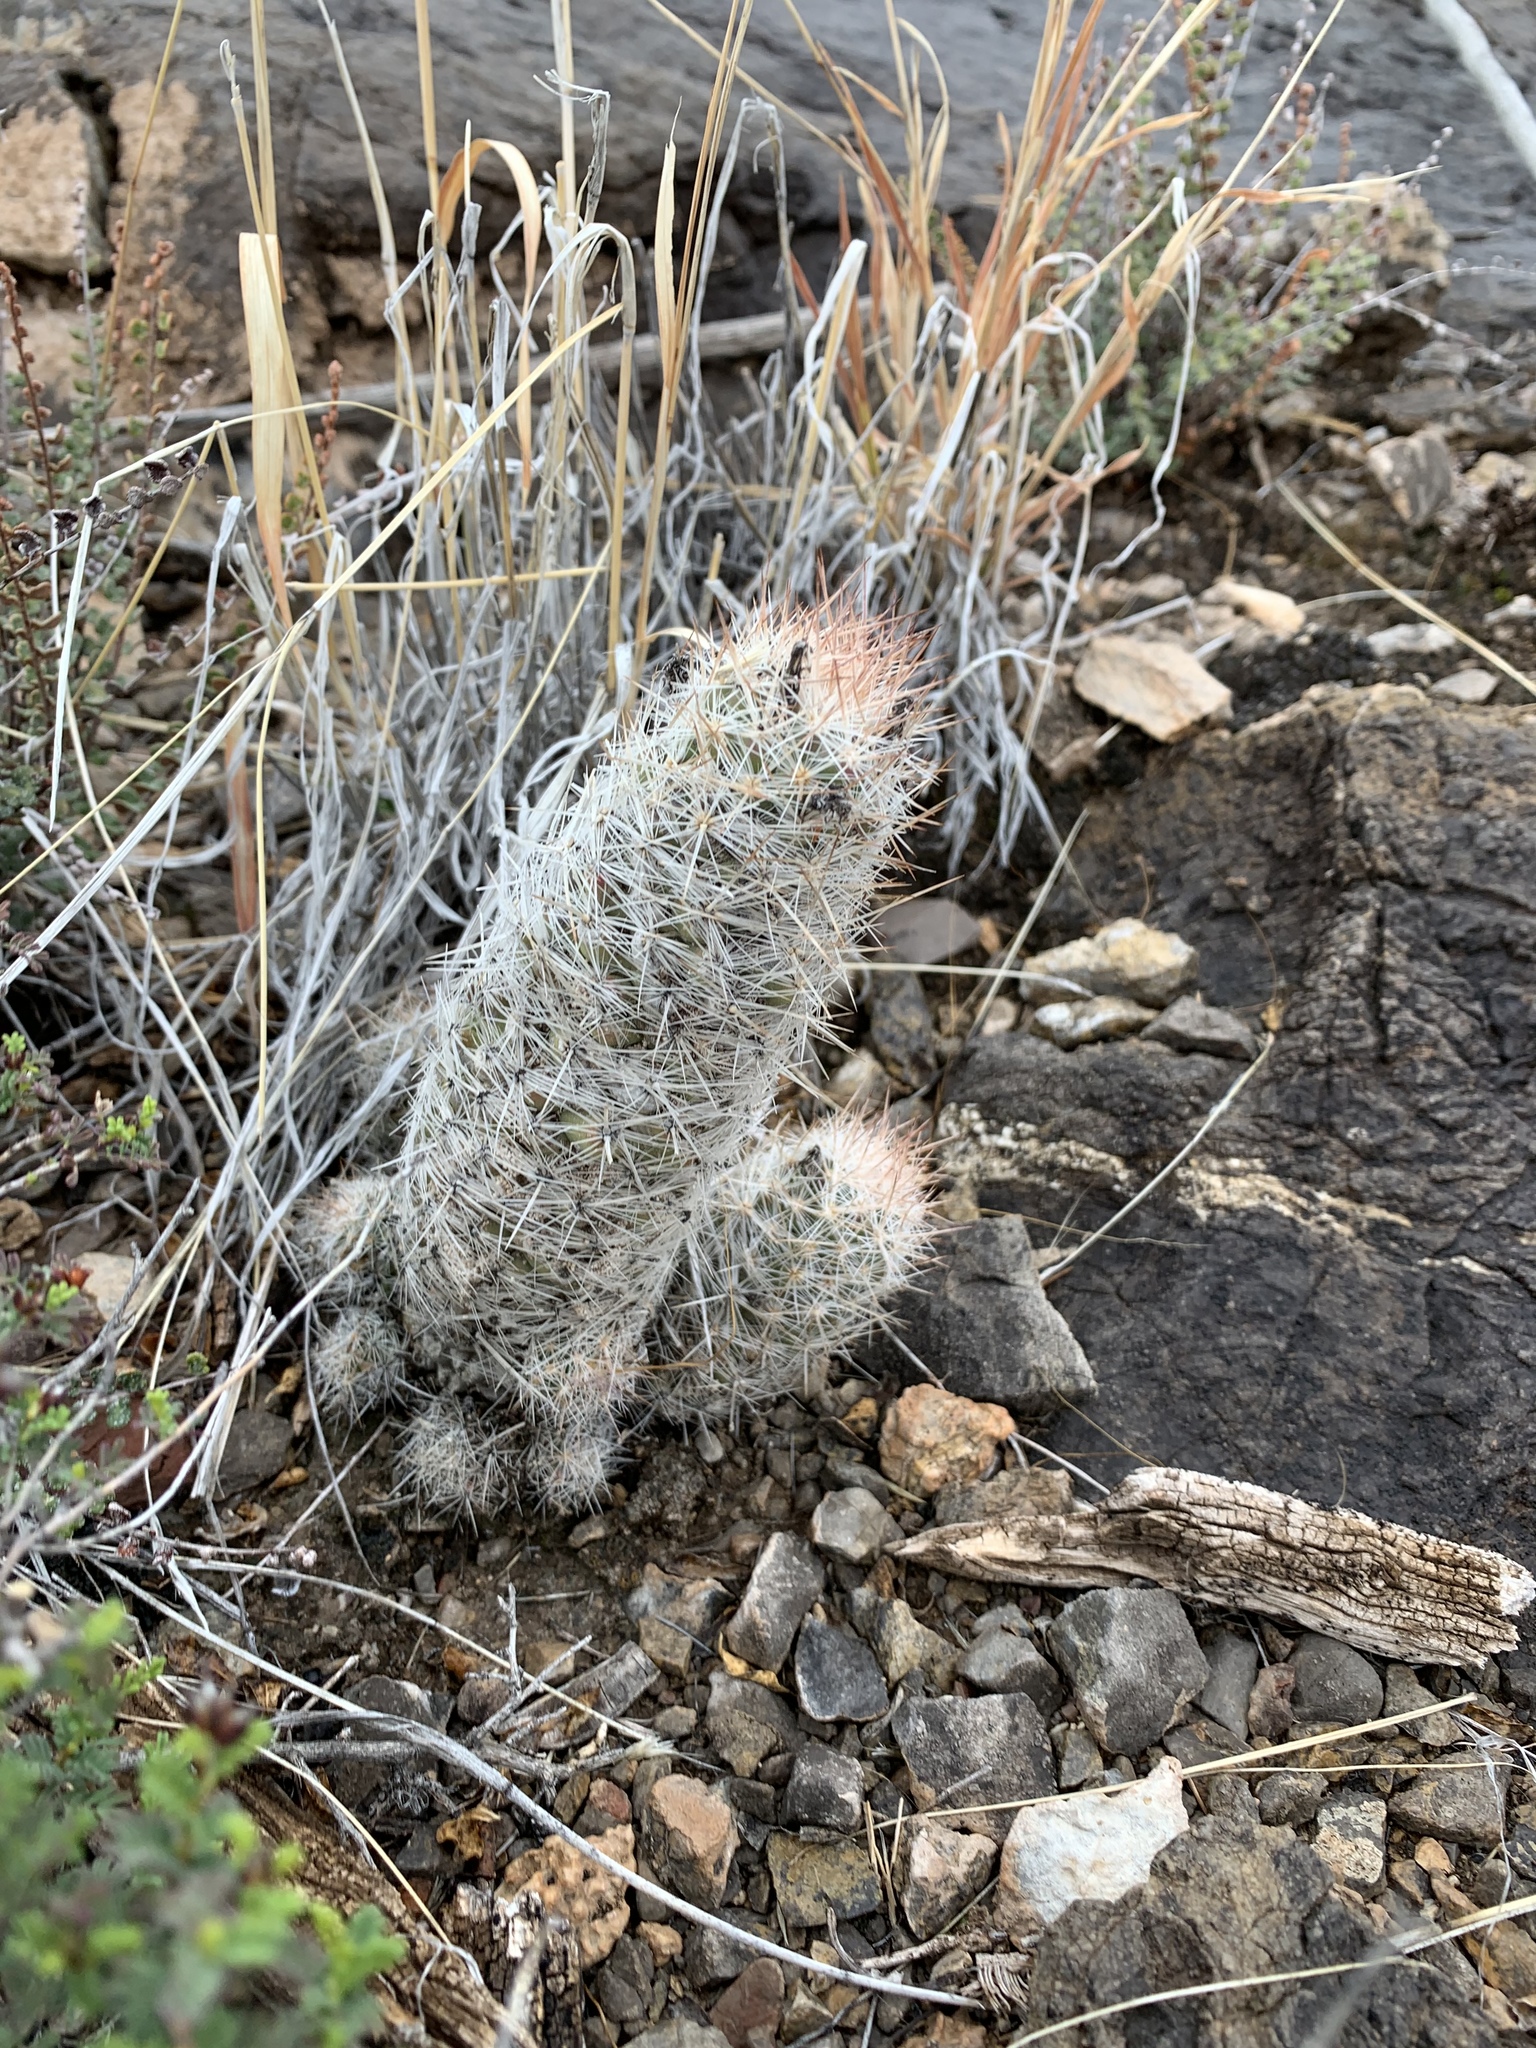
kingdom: Plantae
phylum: Tracheophyta
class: Magnoliopsida
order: Caryophyllales
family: Cactaceae
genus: Pelecyphora
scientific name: Pelecyphora tuberculosa
